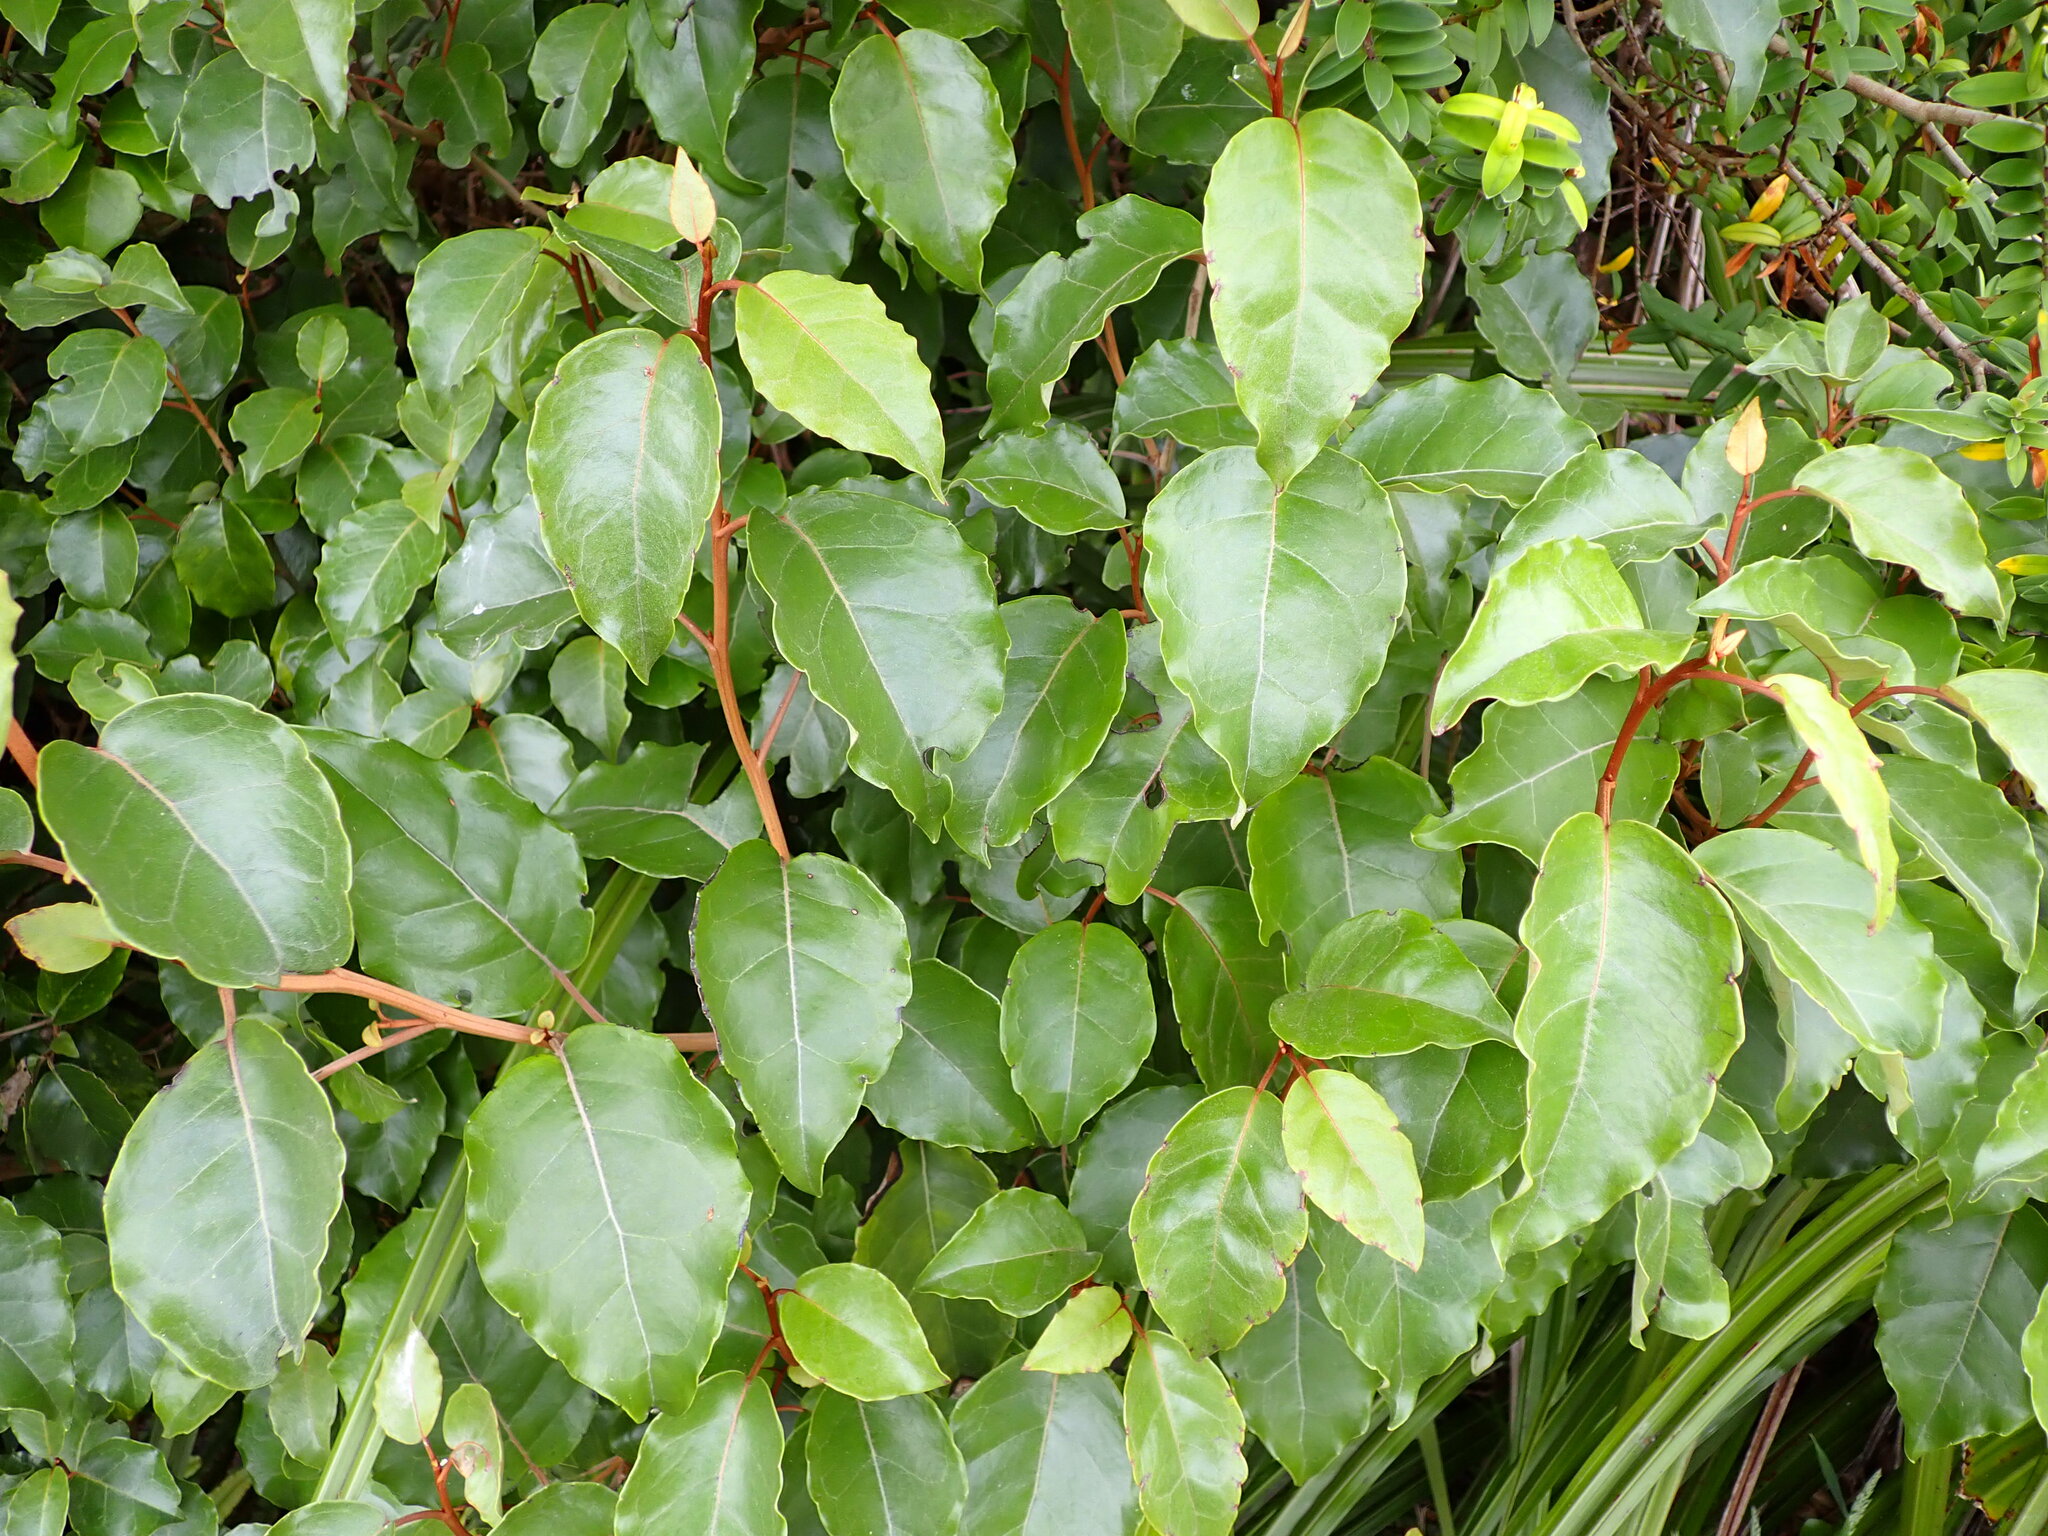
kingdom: Plantae
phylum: Tracheophyta
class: Magnoliopsida
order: Asterales
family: Asteraceae
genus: Olearia
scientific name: Olearia arborescens
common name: Glossy tree daisy
